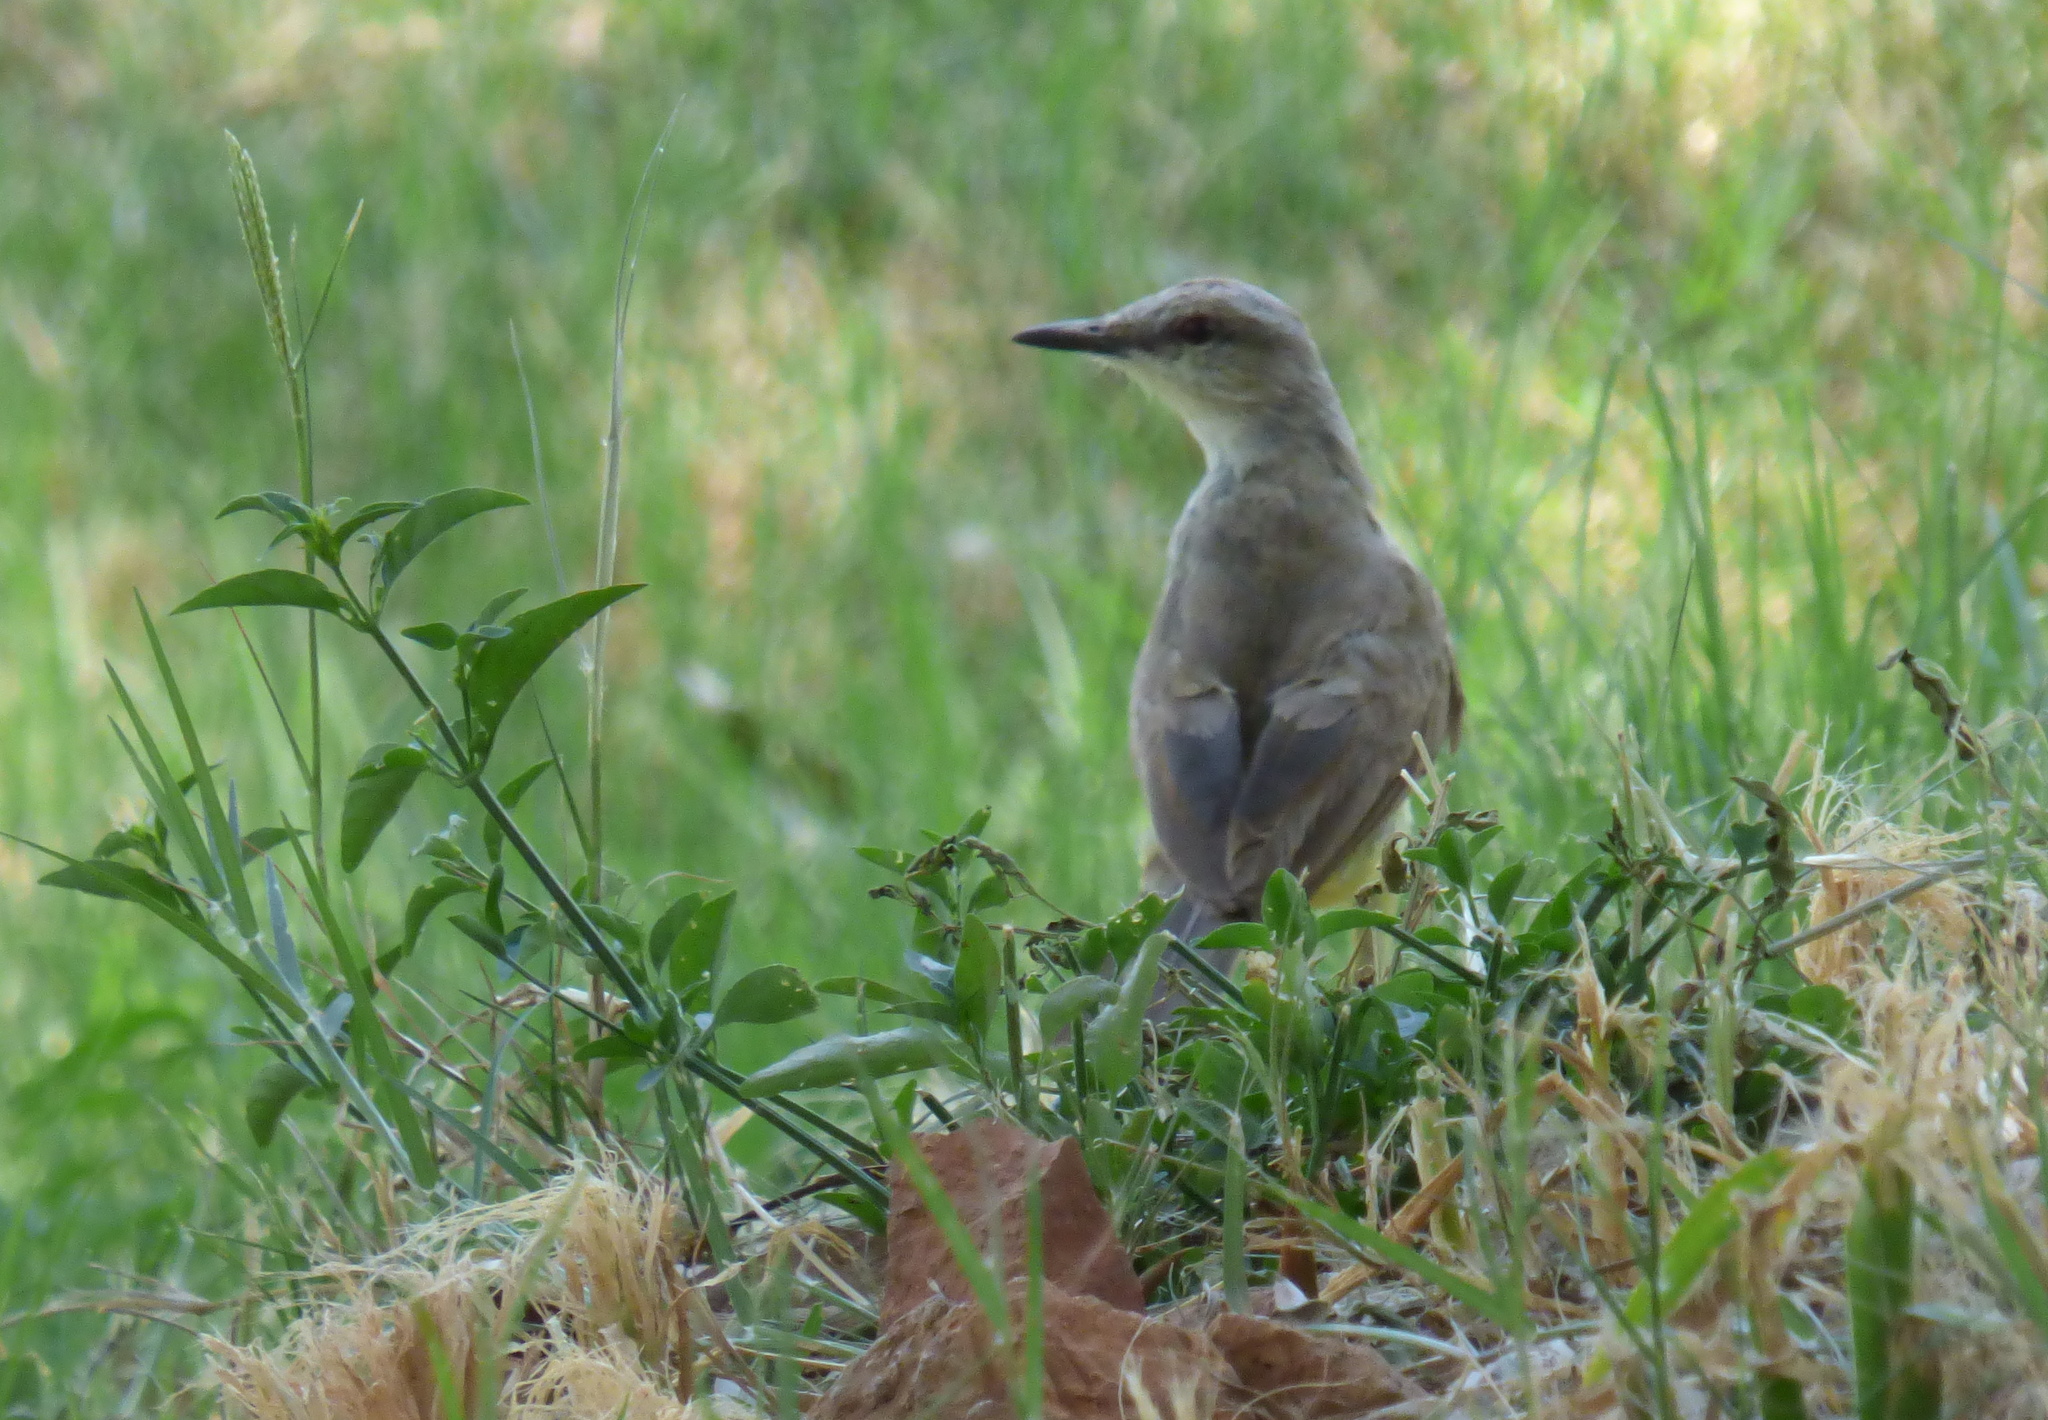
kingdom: Animalia
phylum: Chordata
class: Aves
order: Passeriformes
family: Tyrannidae
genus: Machetornis
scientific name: Machetornis rixosa
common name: Cattle tyrant
